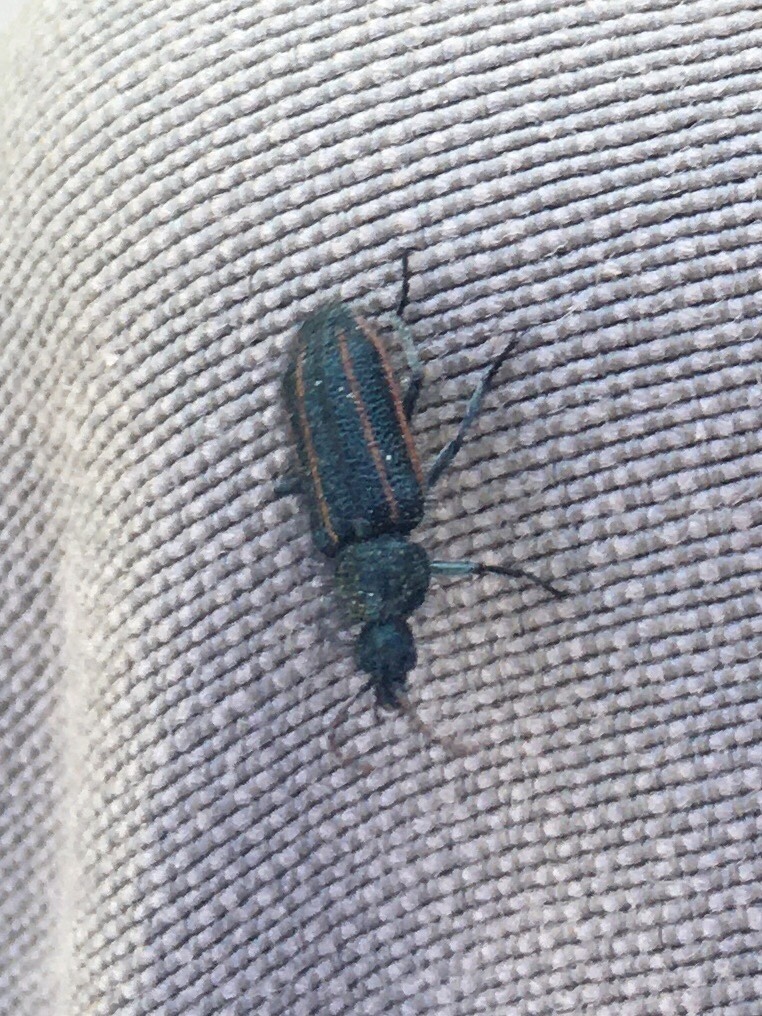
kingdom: Animalia
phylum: Arthropoda
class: Insecta
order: Coleoptera
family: Melyridae
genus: Astylus
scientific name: Astylus
